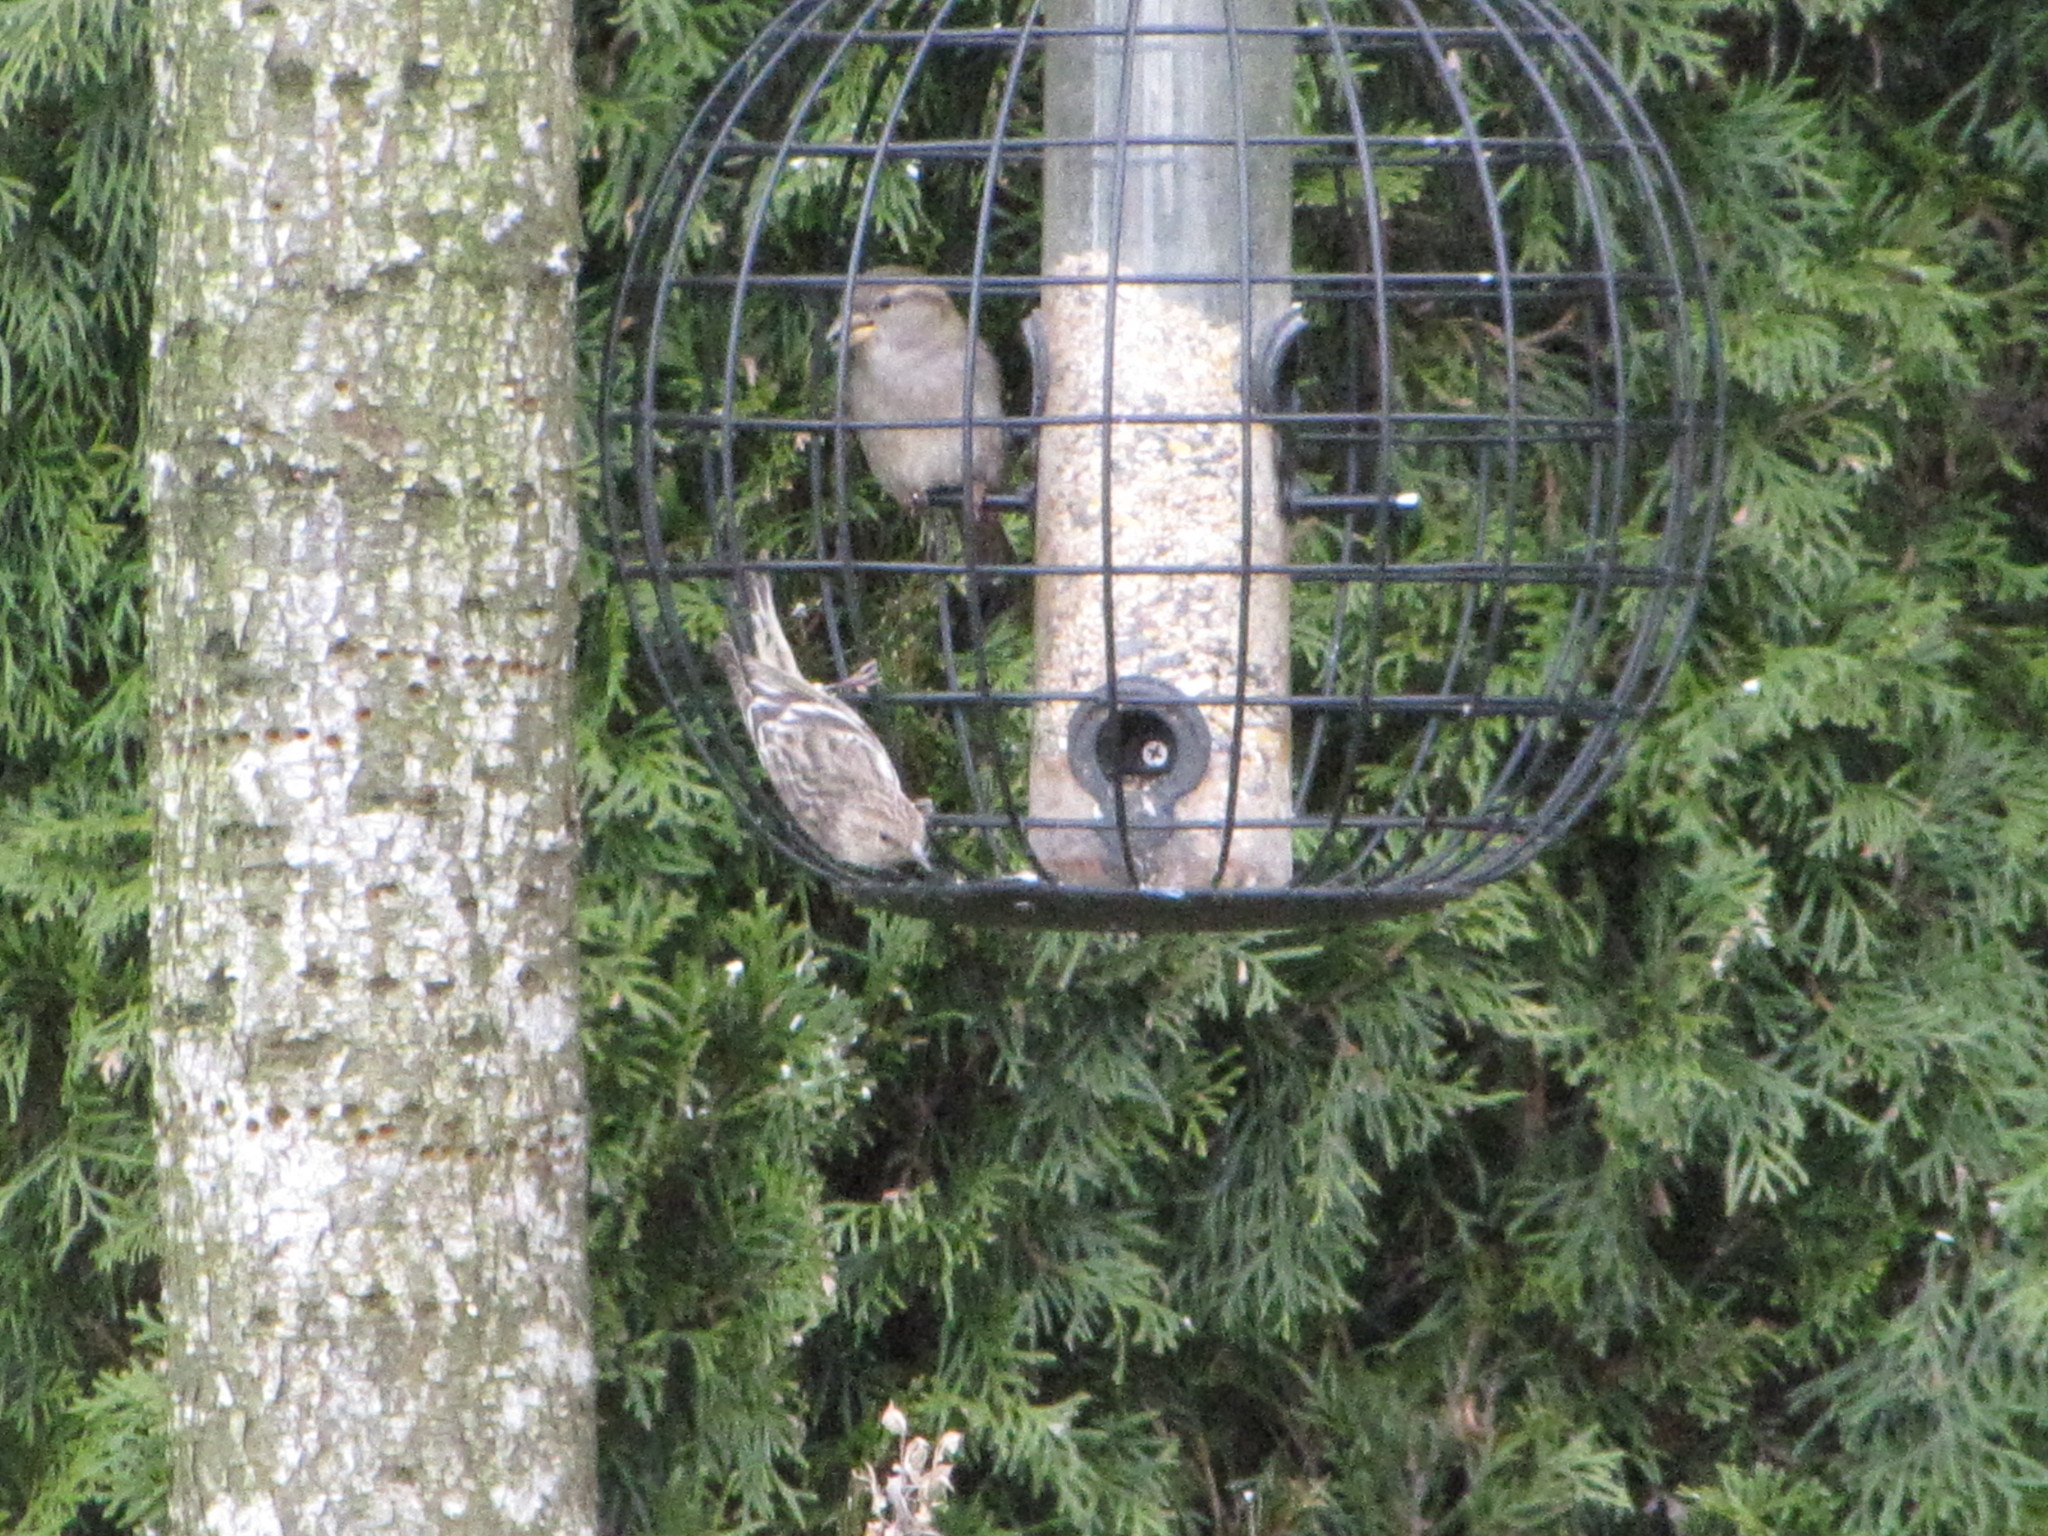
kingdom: Animalia
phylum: Chordata
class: Aves
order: Passeriformes
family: Passeridae
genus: Passer
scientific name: Passer domesticus
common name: House sparrow
